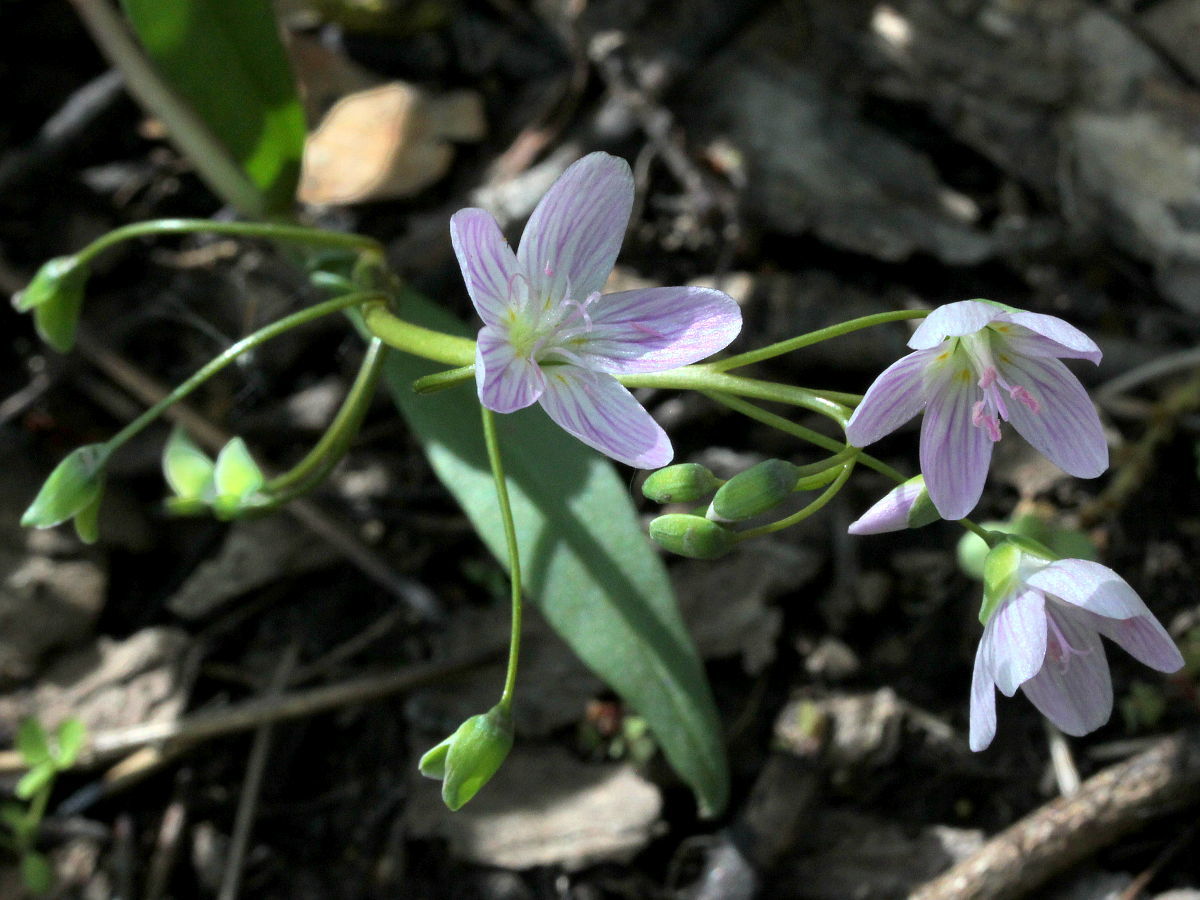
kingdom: Plantae
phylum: Tracheophyta
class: Magnoliopsida
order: Caryophyllales
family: Montiaceae
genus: Claytonia
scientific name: Claytonia virginica
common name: Virginia springbeauty
